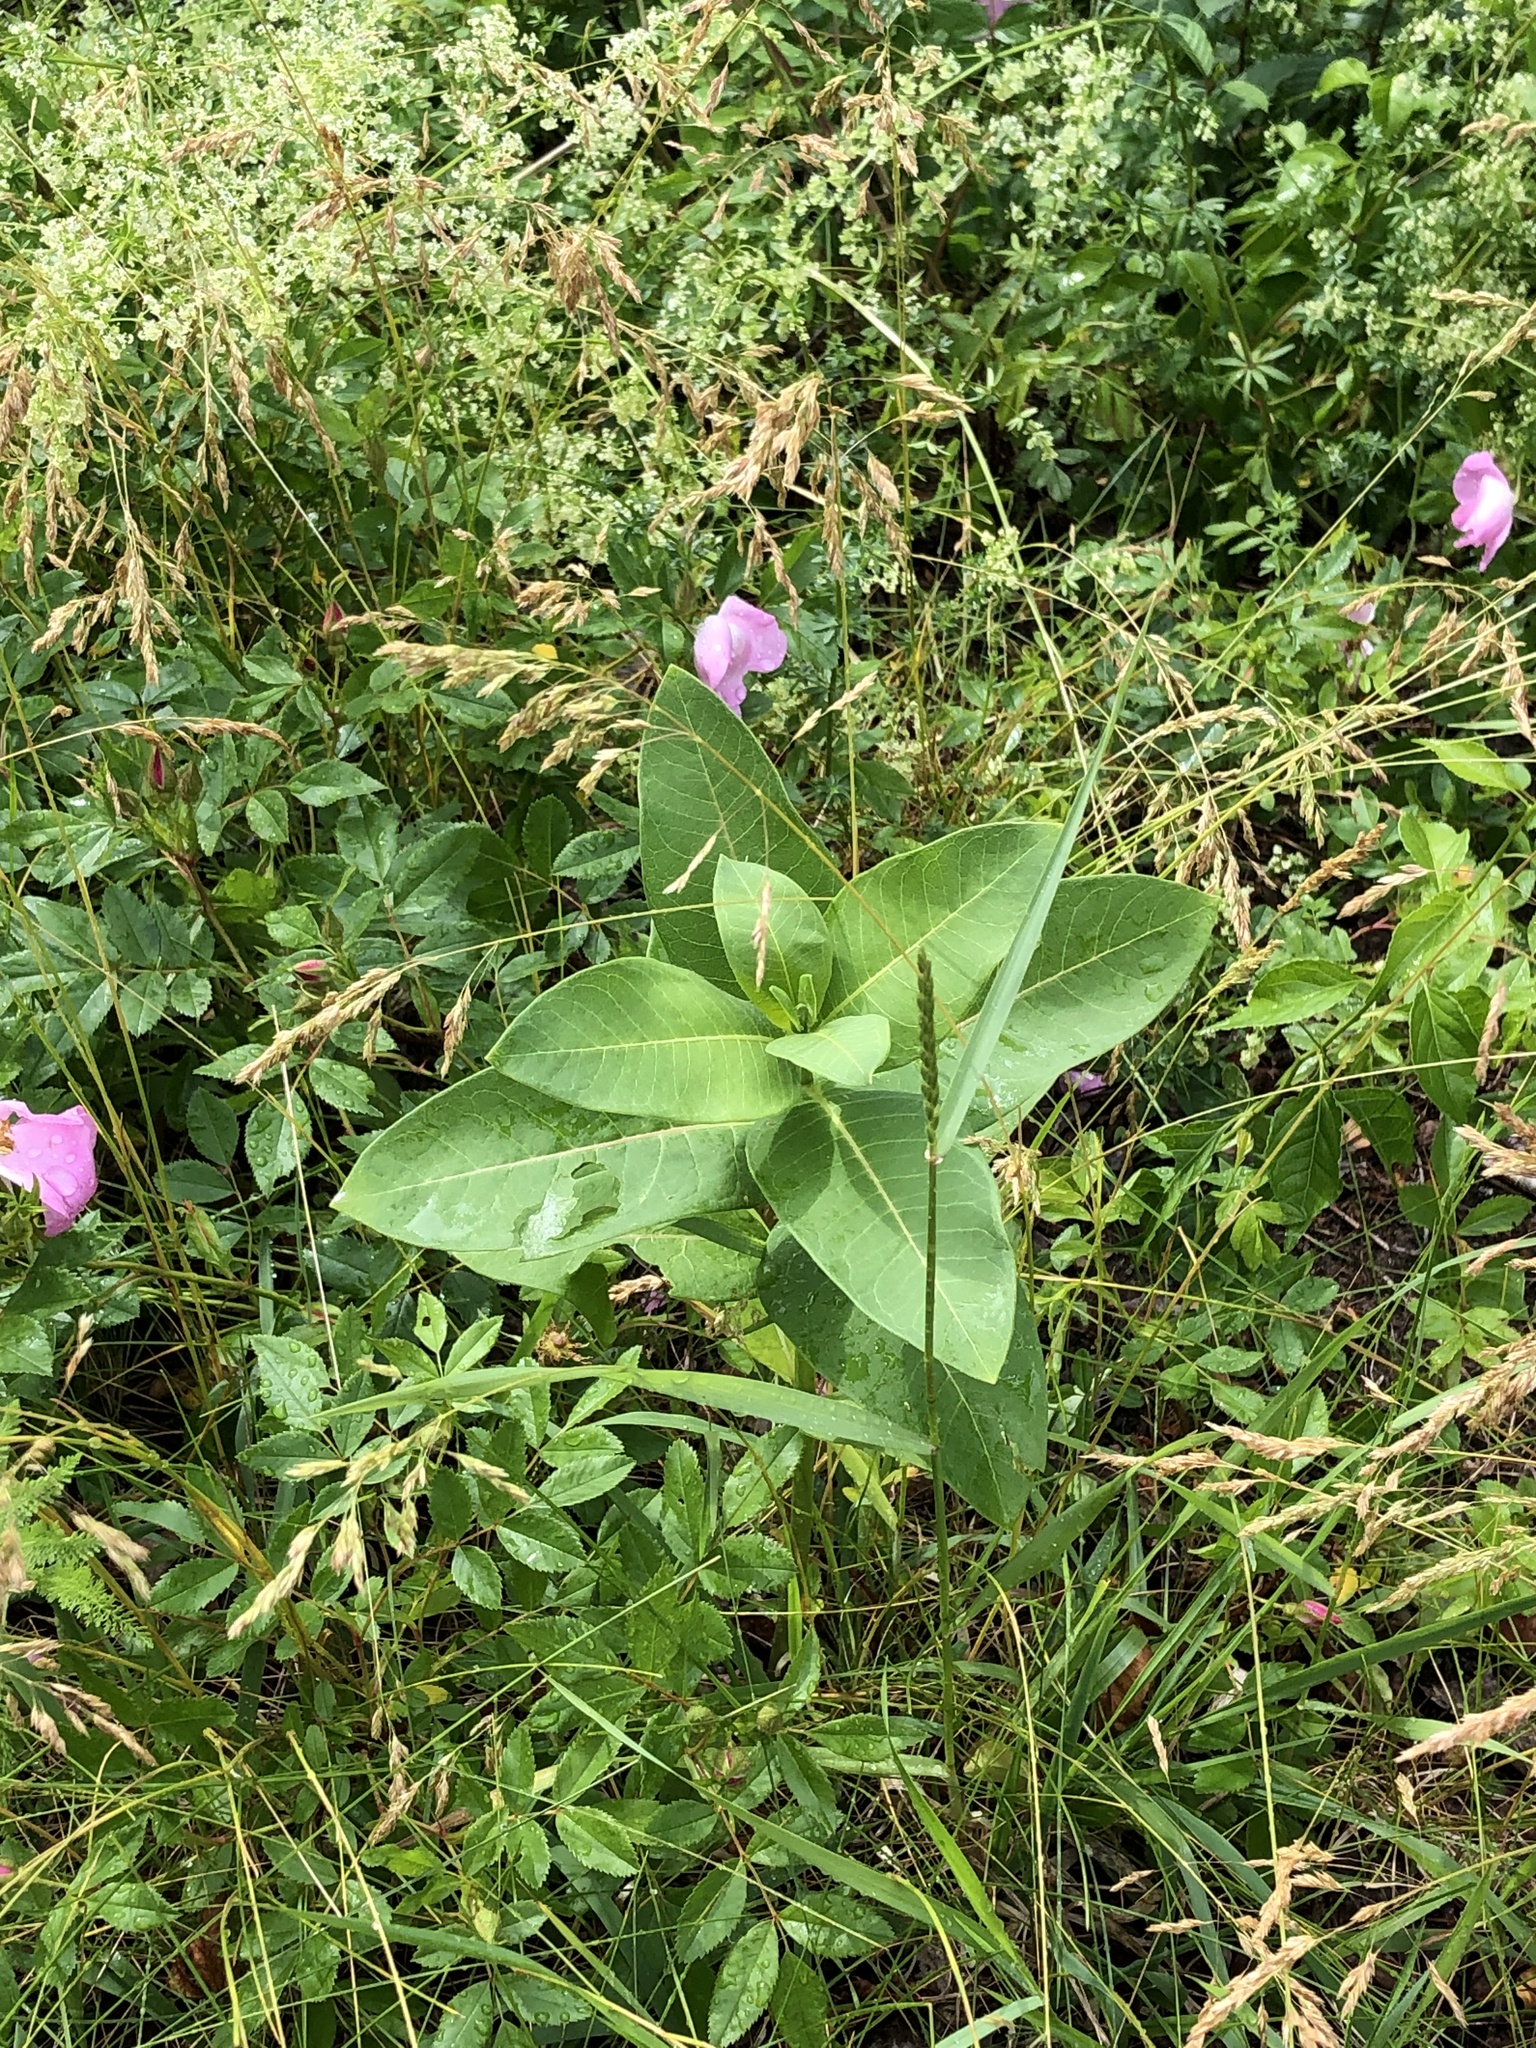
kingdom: Plantae
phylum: Tracheophyta
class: Magnoliopsida
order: Gentianales
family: Apocynaceae
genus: Asclepias
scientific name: Asclepias syriaca
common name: Common milkweed
